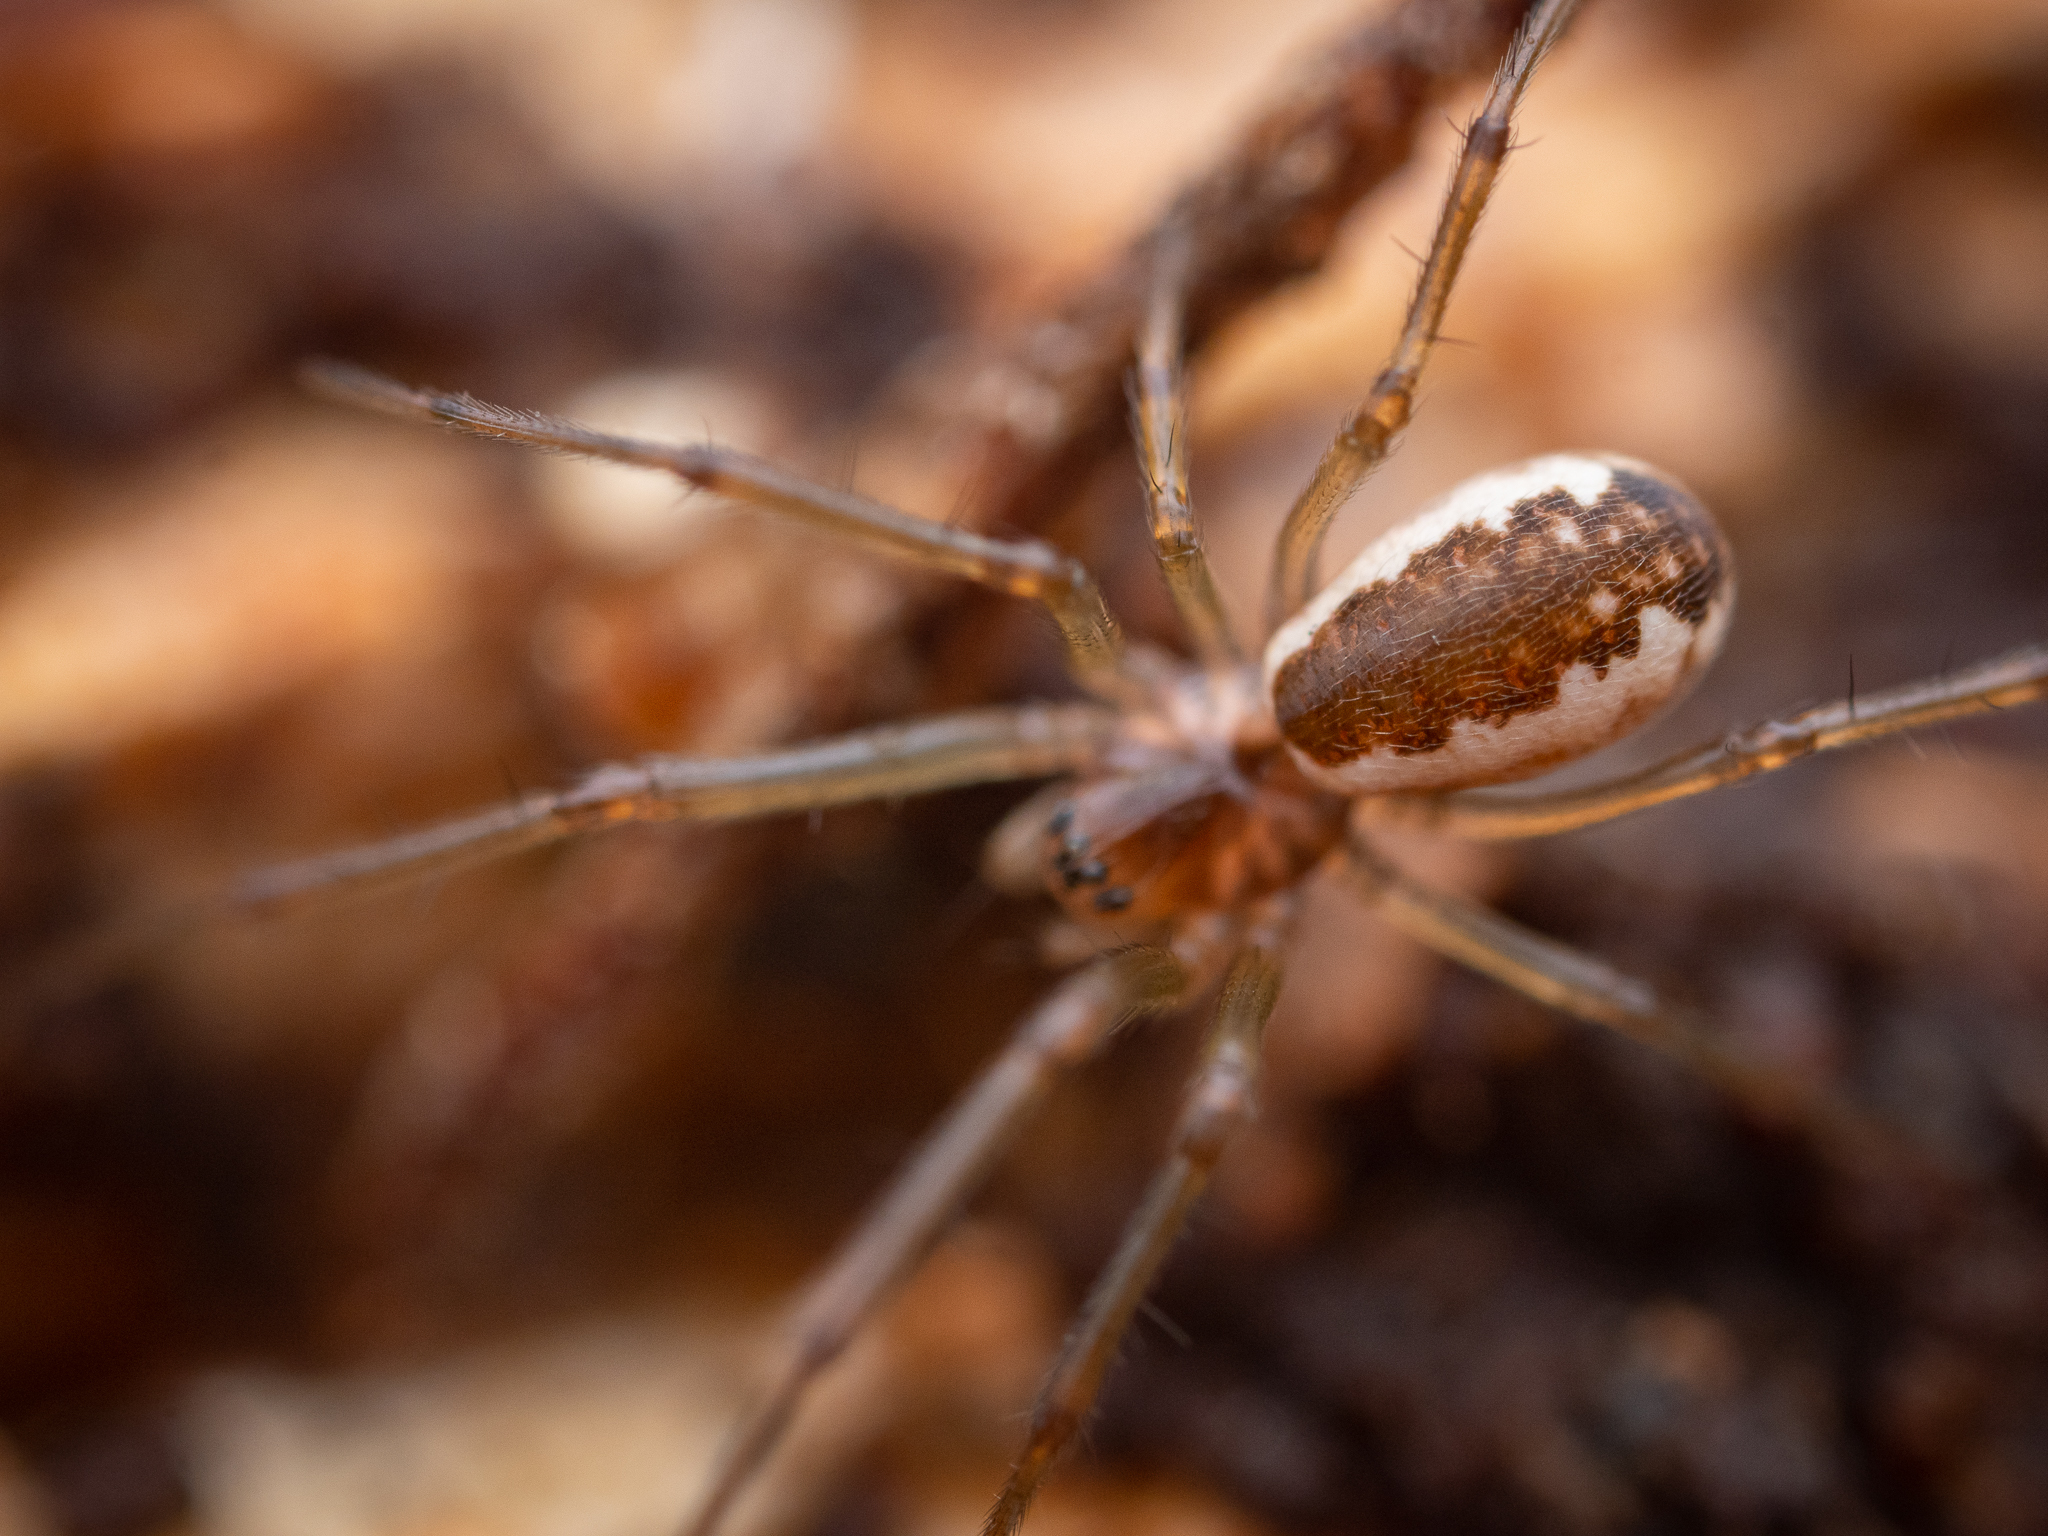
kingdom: Animalia
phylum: Arthropoda
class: Arachnida
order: Araneae
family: Linyphiidae
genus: Neriene
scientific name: Neriene peltata
